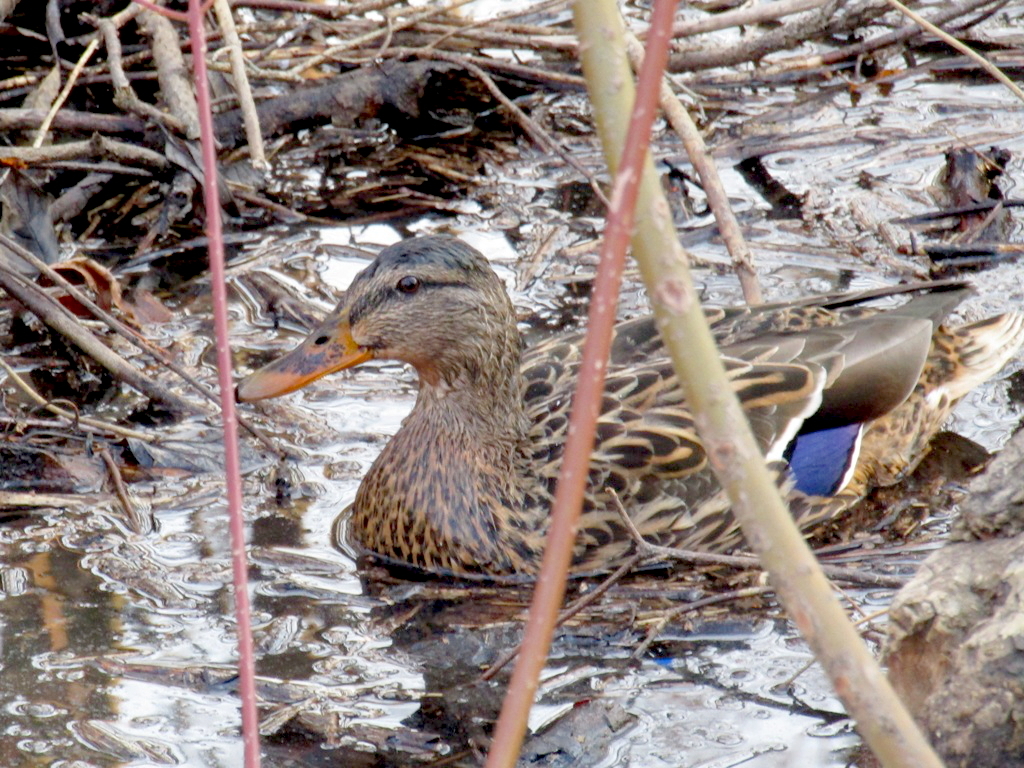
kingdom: Animalia
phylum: Chordata
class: Aves
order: Anseriformes
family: Anatidae
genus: Anas
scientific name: Anas platyrhynchos
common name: Mallard
